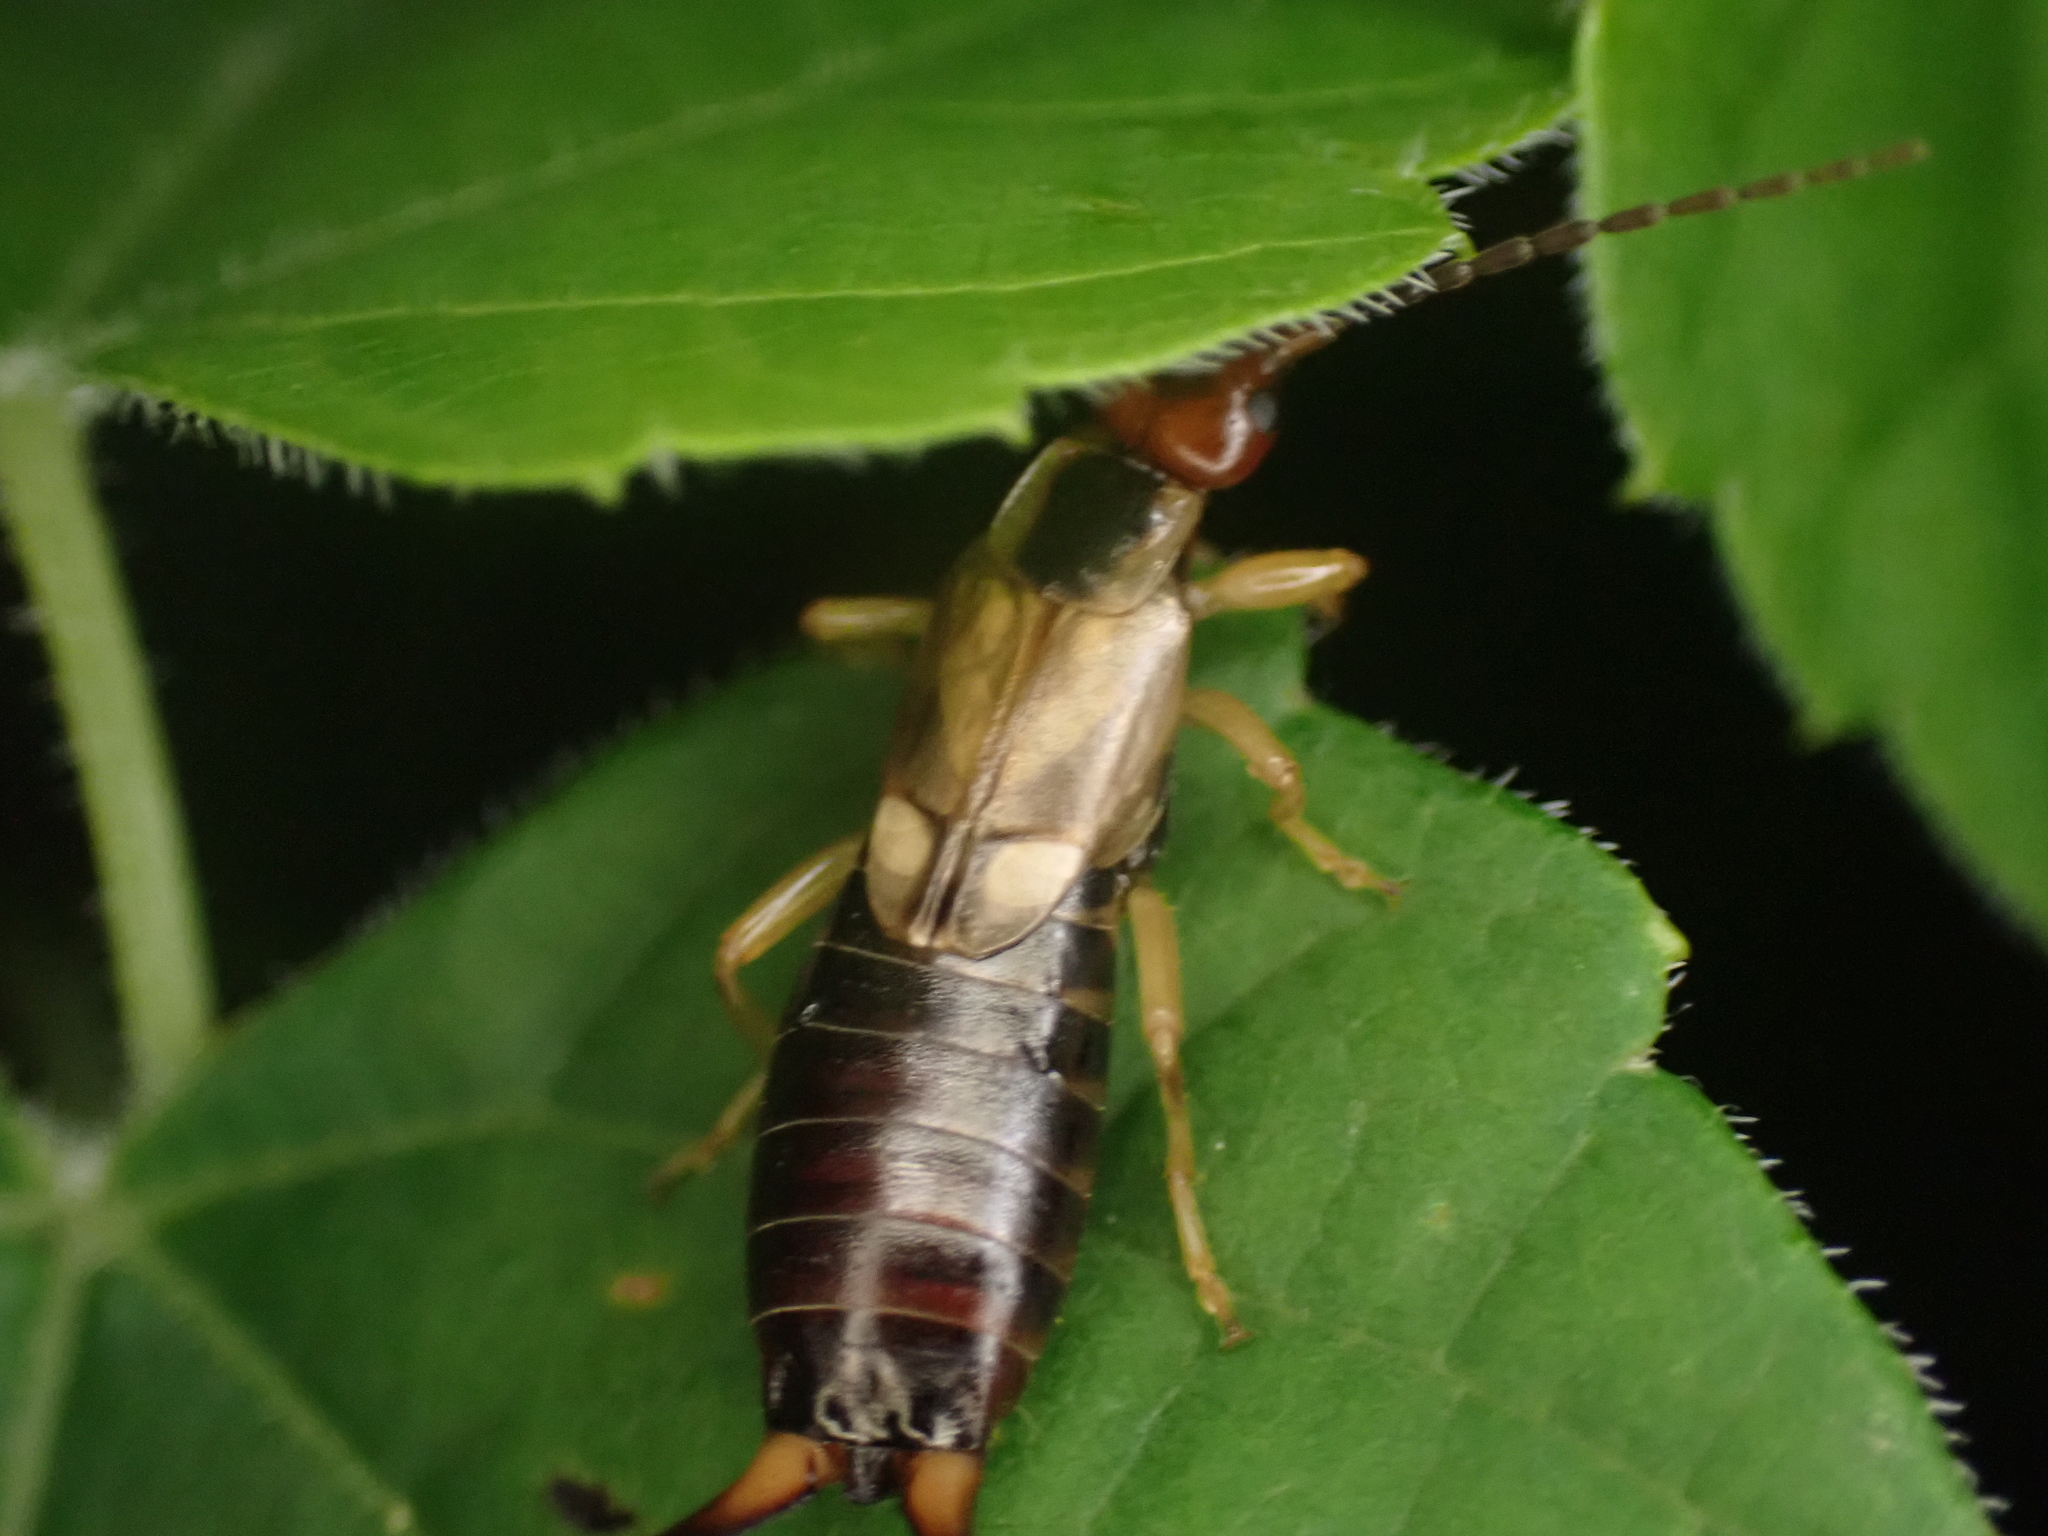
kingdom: Animalia
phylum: Arthropoda
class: Insecta
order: Dermaptera
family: Forficulidae
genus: Forficula
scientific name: Forficula
